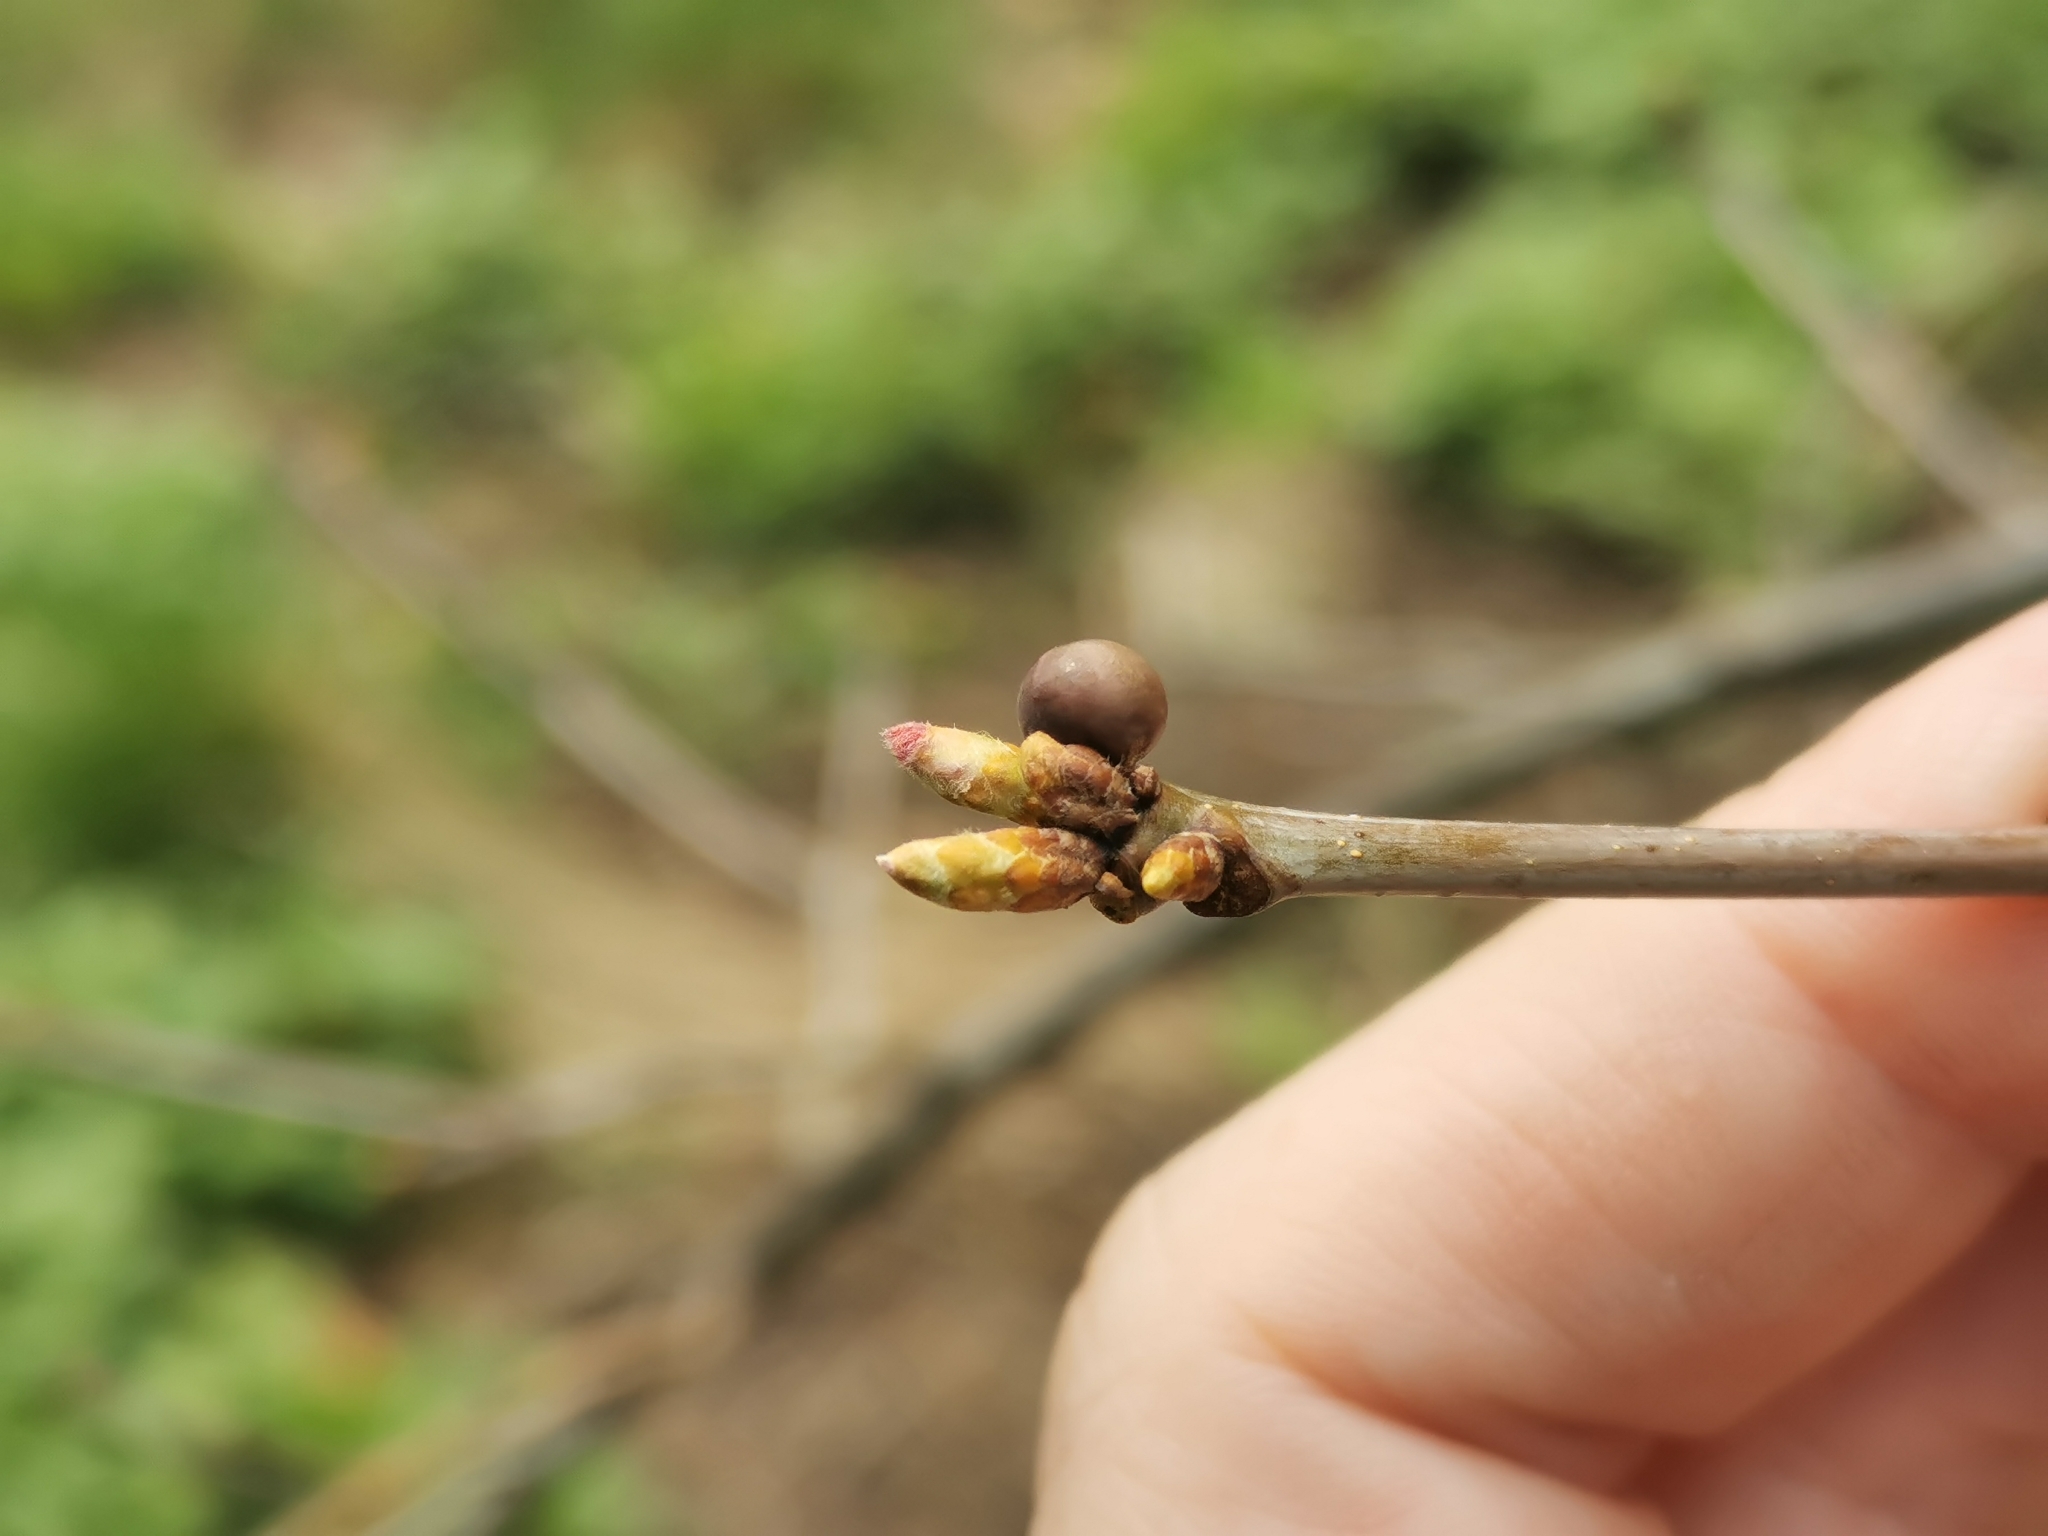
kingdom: Animalia
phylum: Arthropoda
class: Insecta
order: Hymenoptera
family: Cynipidae
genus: Neuroterus
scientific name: Neuroterus
